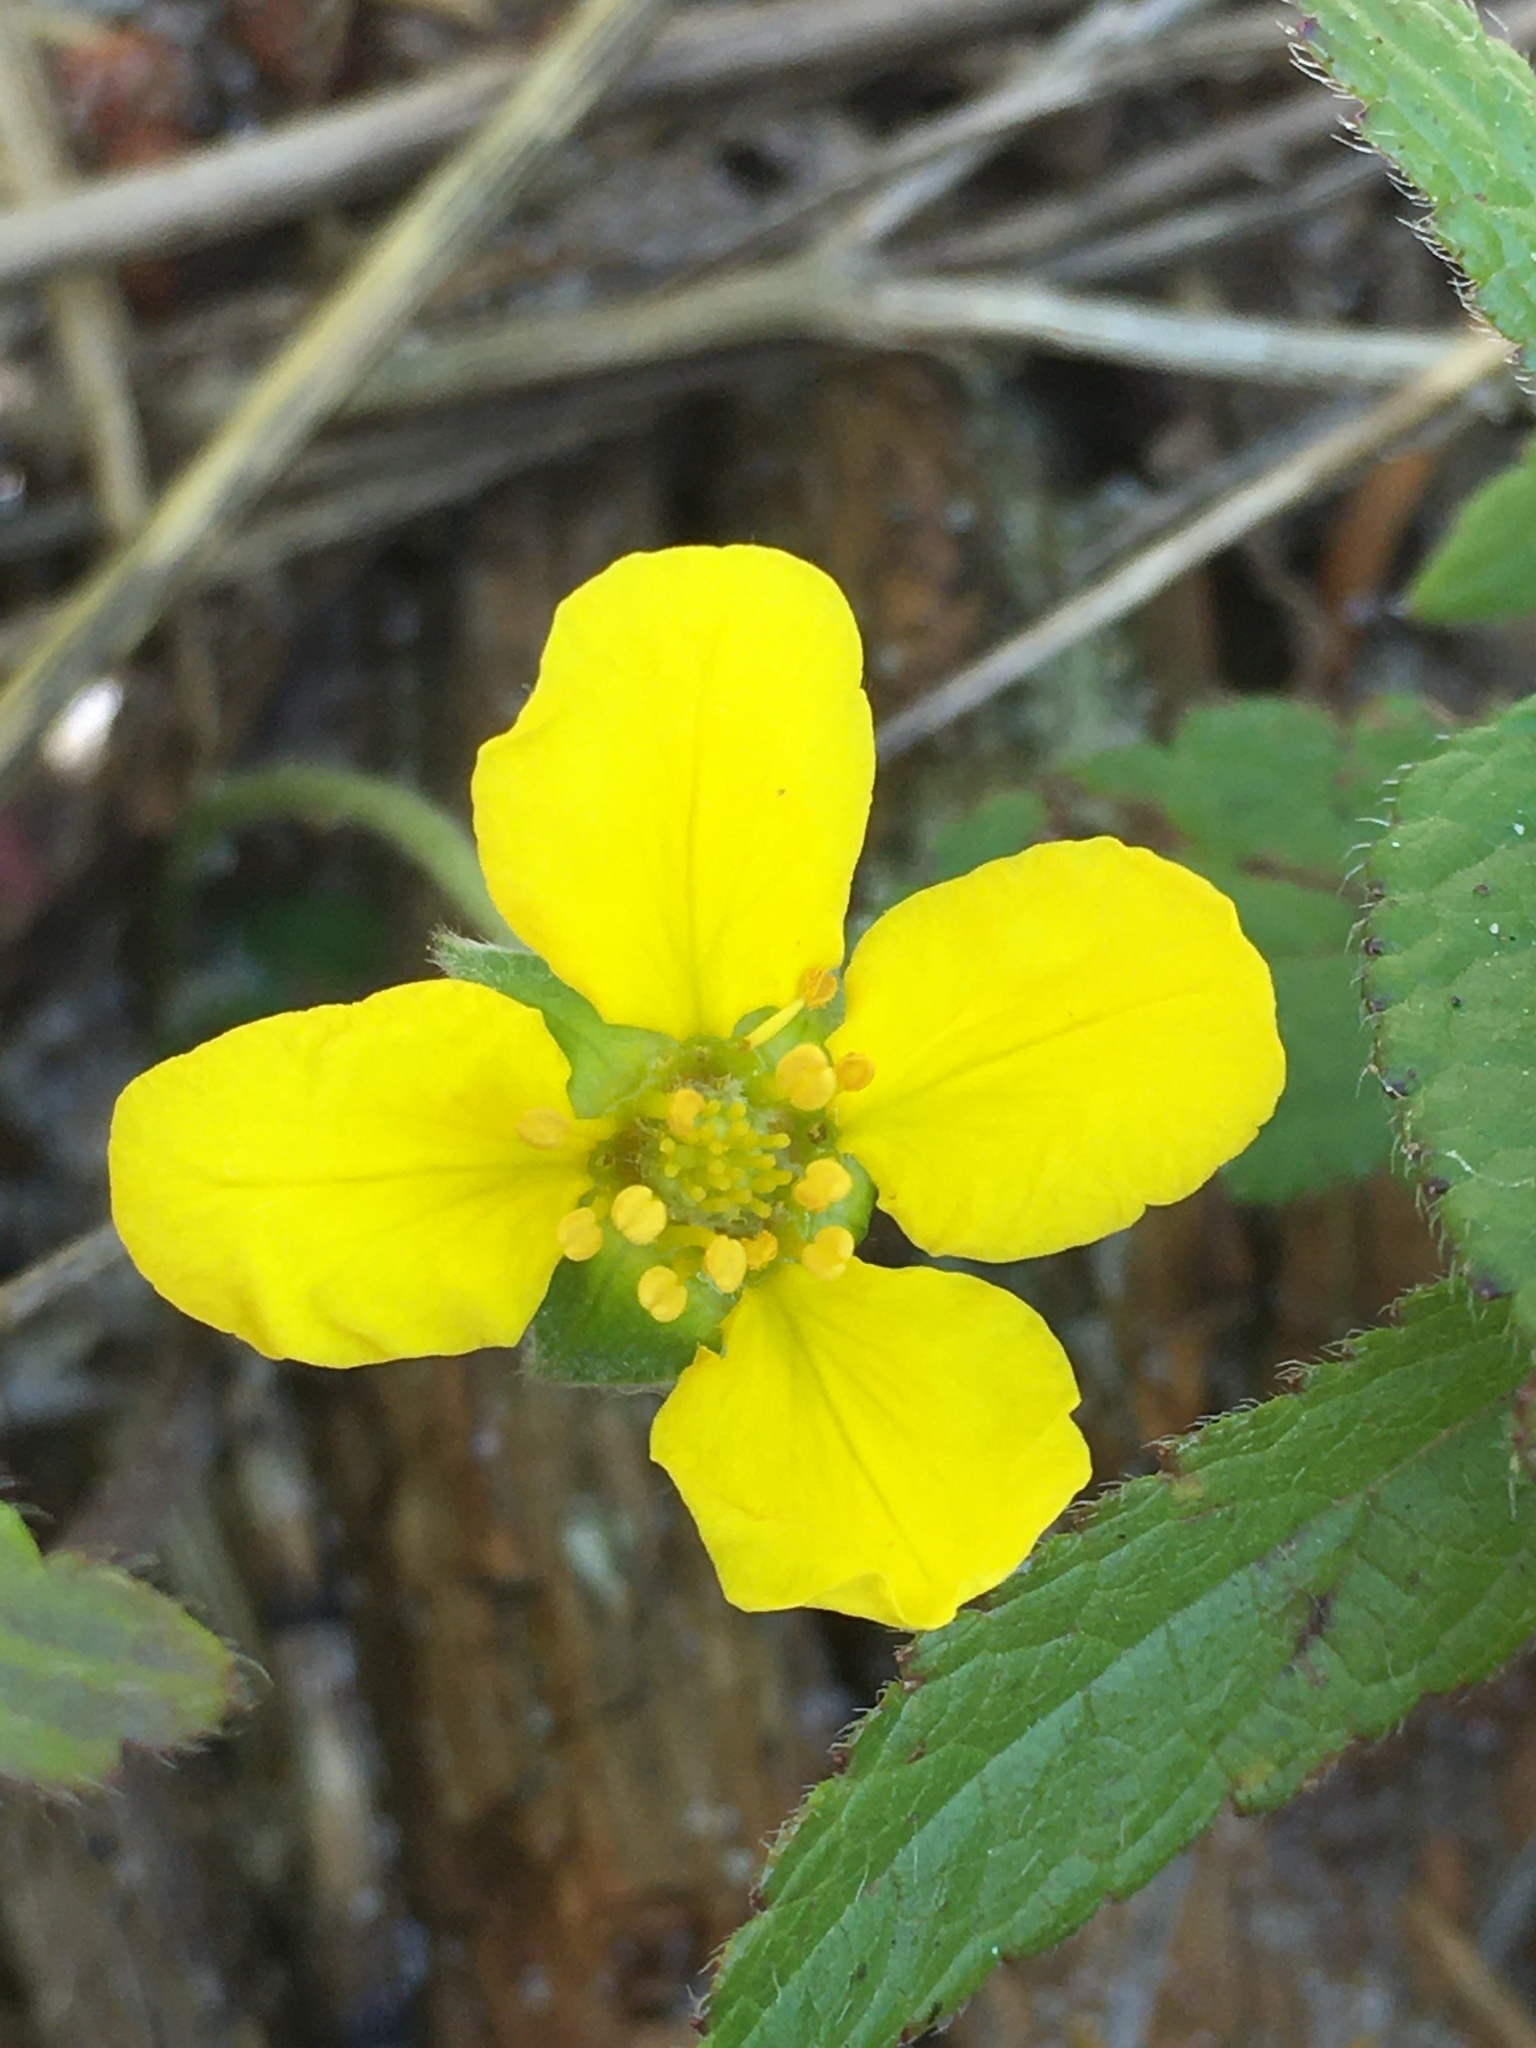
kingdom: Plantae
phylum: Tracheophyta
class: Magnoliopsida
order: Rosales
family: Rosaceae
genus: Argentina
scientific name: Argentina anserina
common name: Common silverweed
